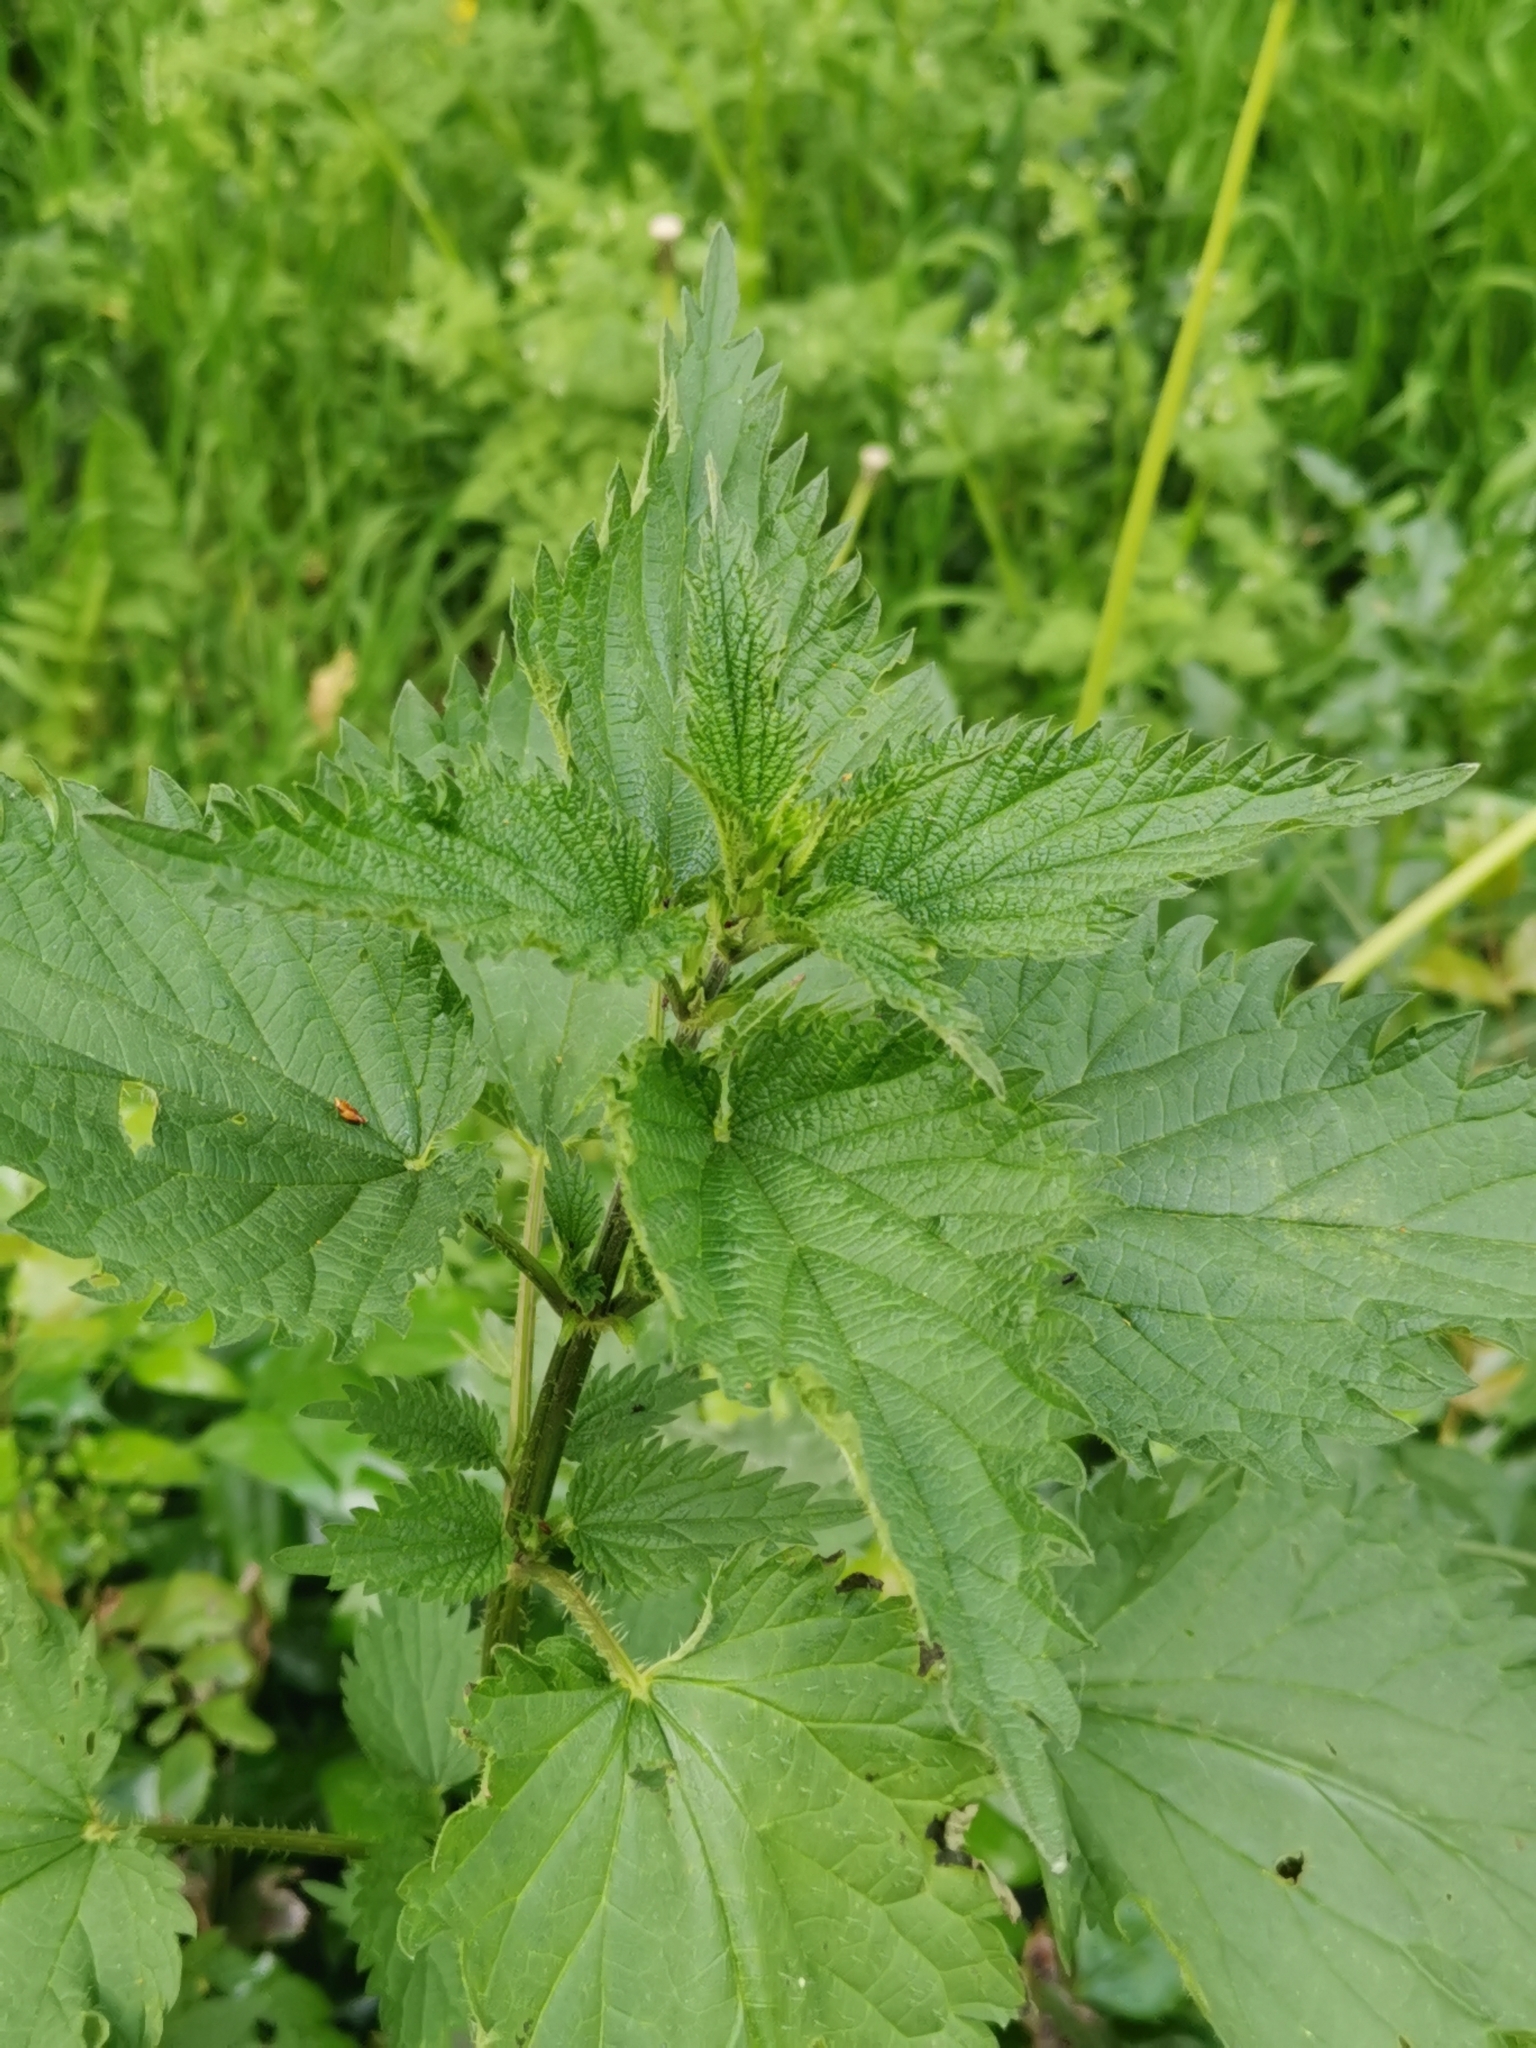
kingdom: Plantae
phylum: Tracheophyta
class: Magnoliopsida
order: Rosales
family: Urticaceae
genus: Urtica
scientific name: Urtica dioica
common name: Common nettle
